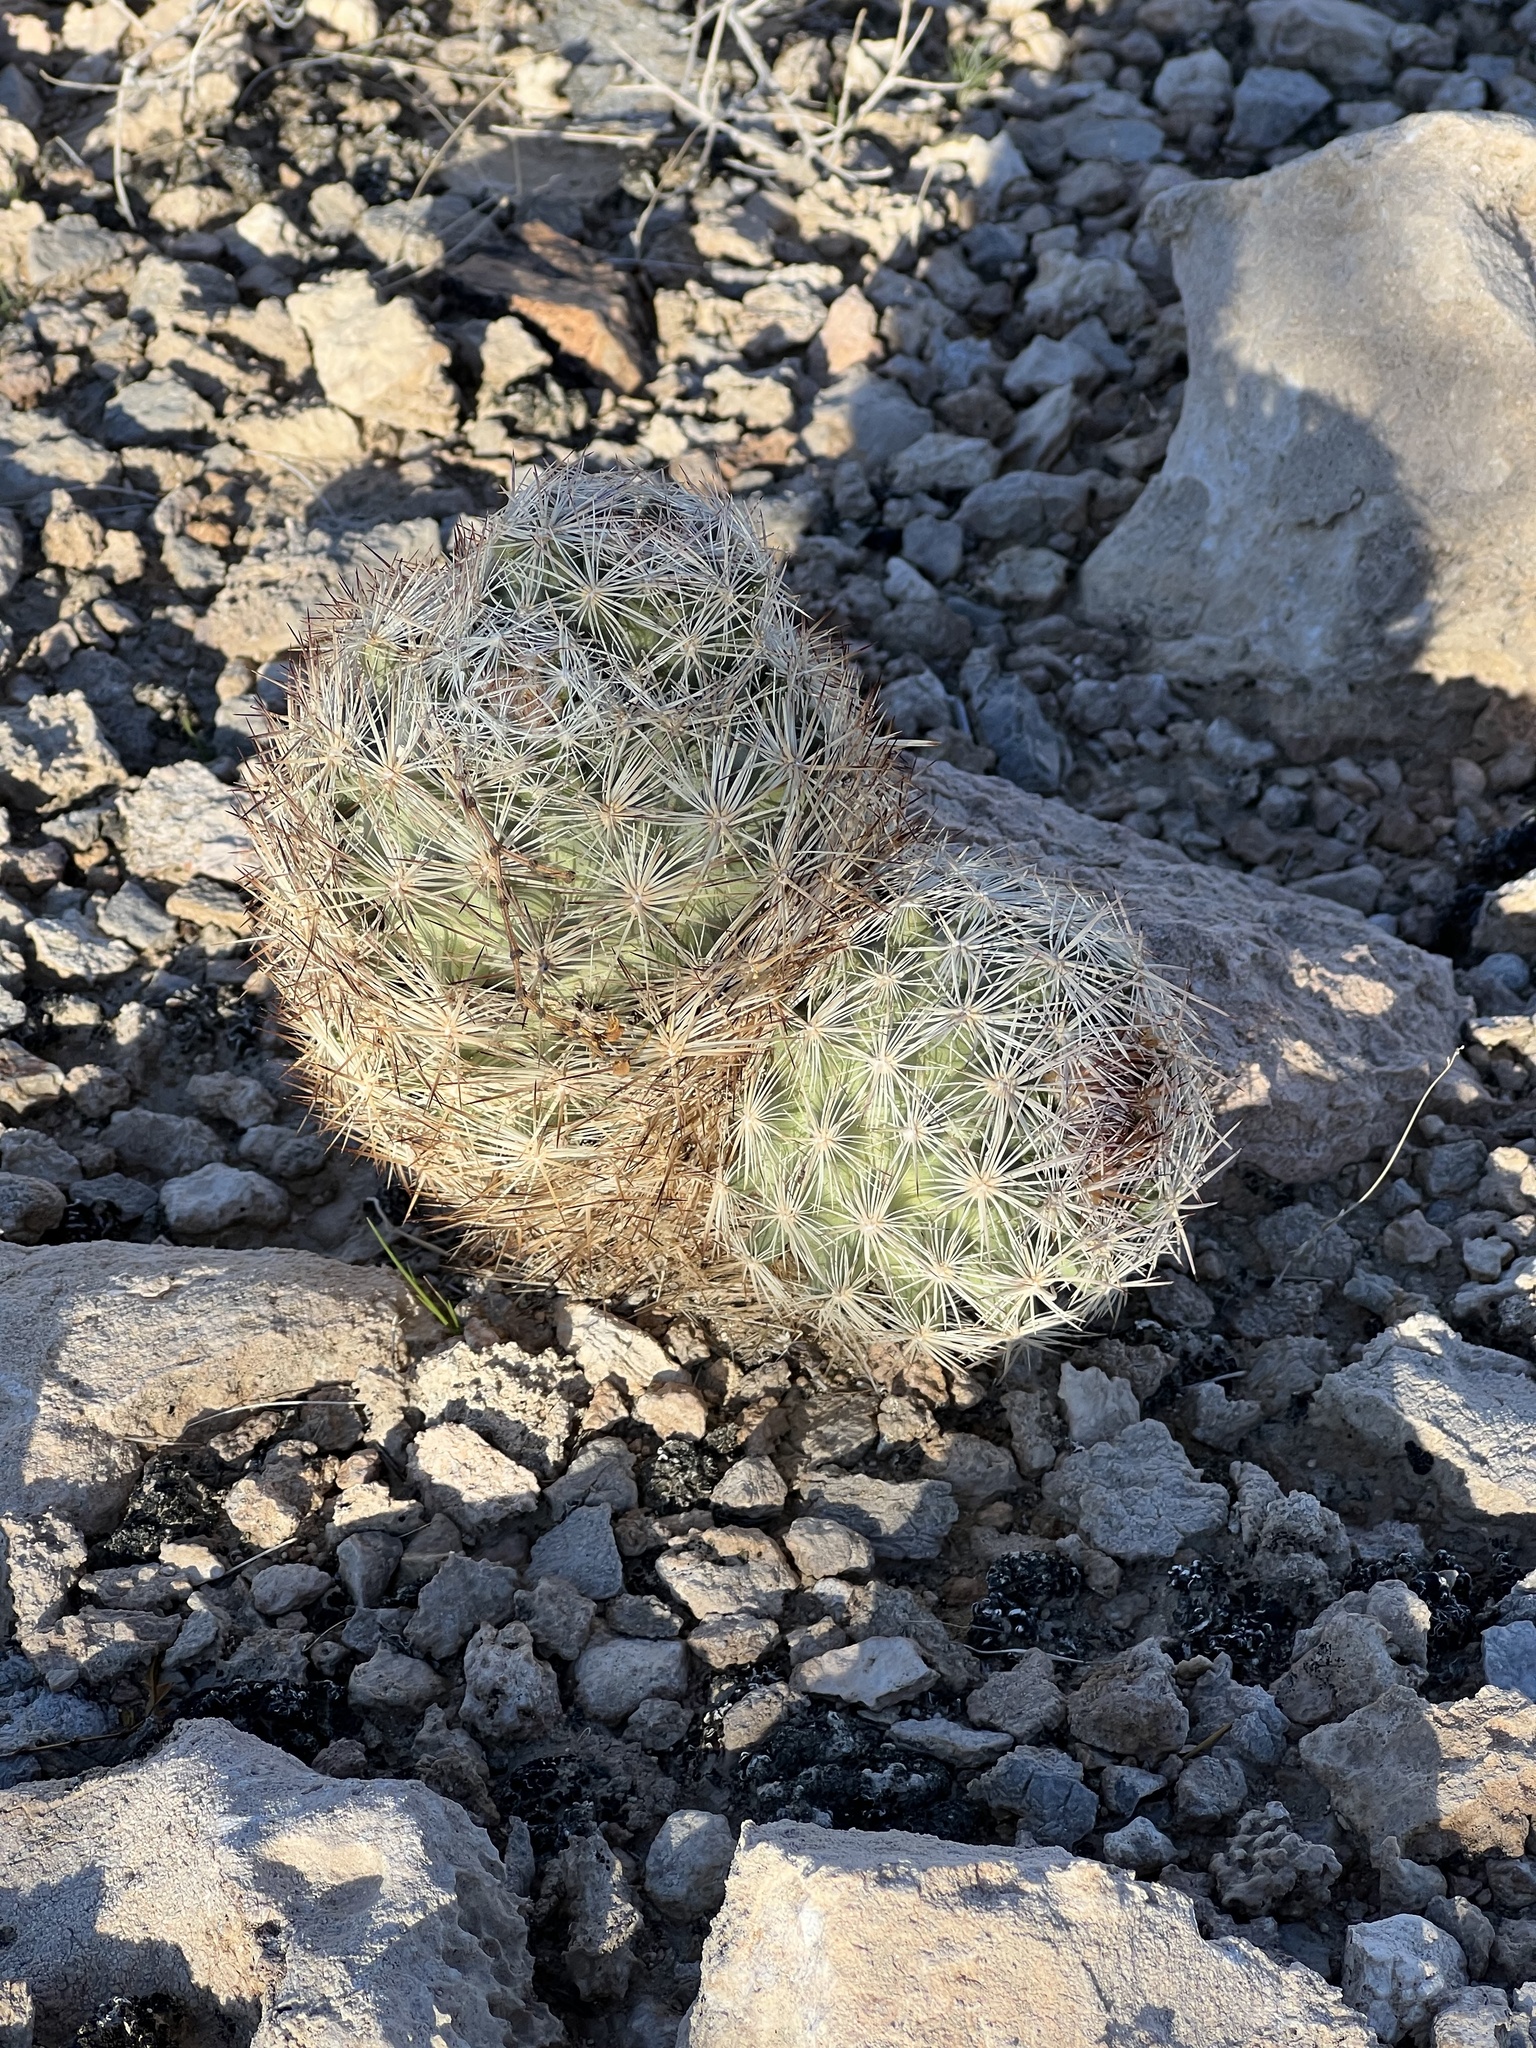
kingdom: Plantae
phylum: Tracheophyta
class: Magnoliopsida
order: Caryophyllales
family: Cactaceae
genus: Pelecyphora
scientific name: Pelecyphora vivipara
